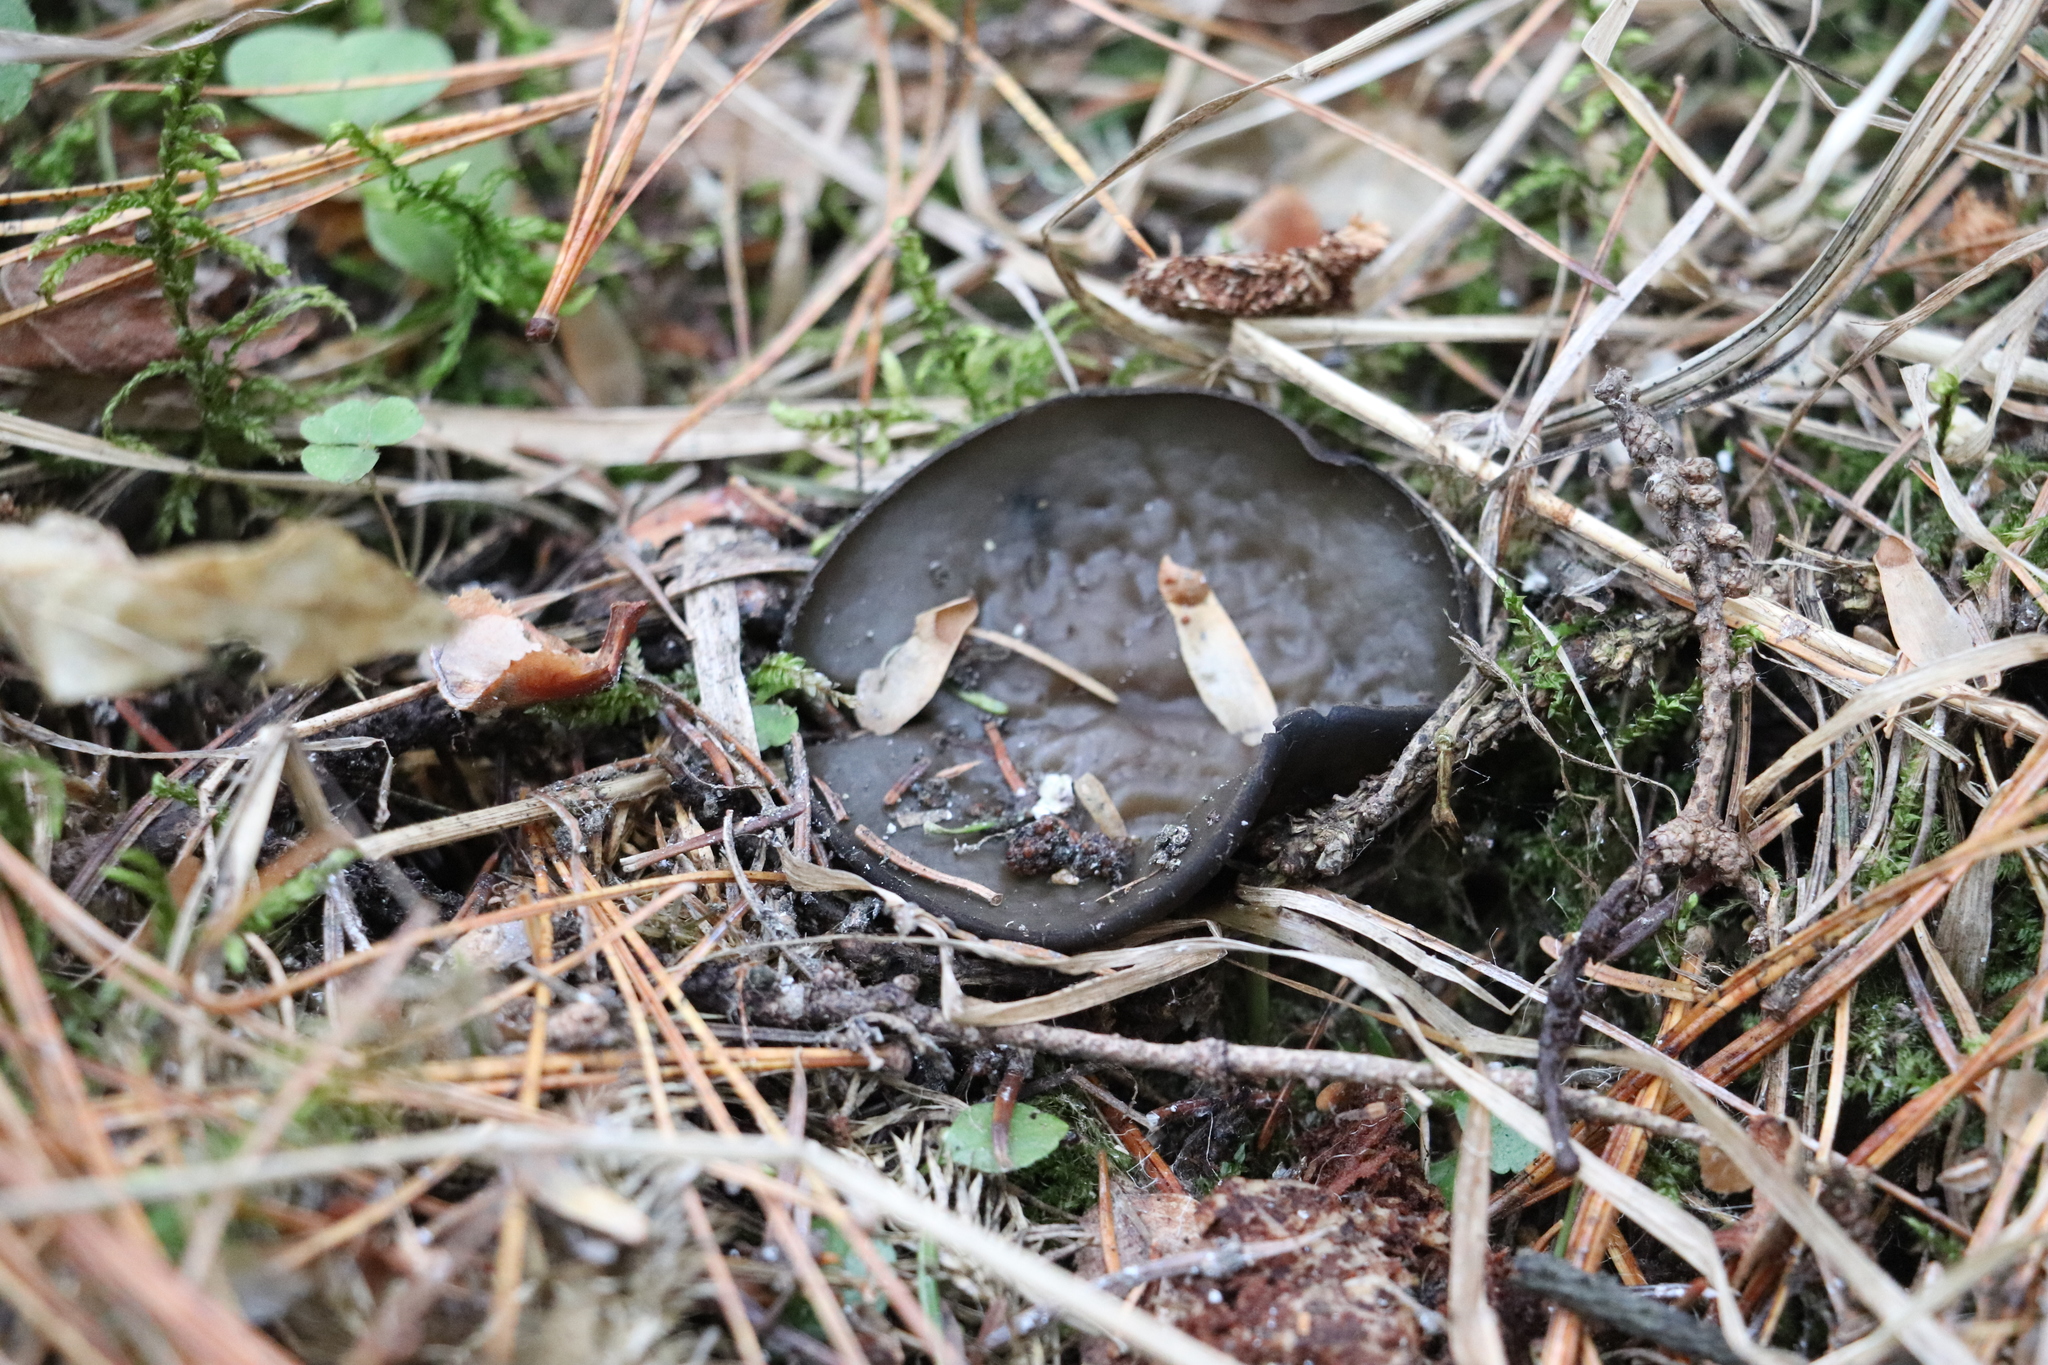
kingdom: Fungi
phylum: Ascomycota
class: Pezizomycetes
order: Pezizales
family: Sarcosomataceae
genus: Pseudoplectania
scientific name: Pseudoplectania melaena
